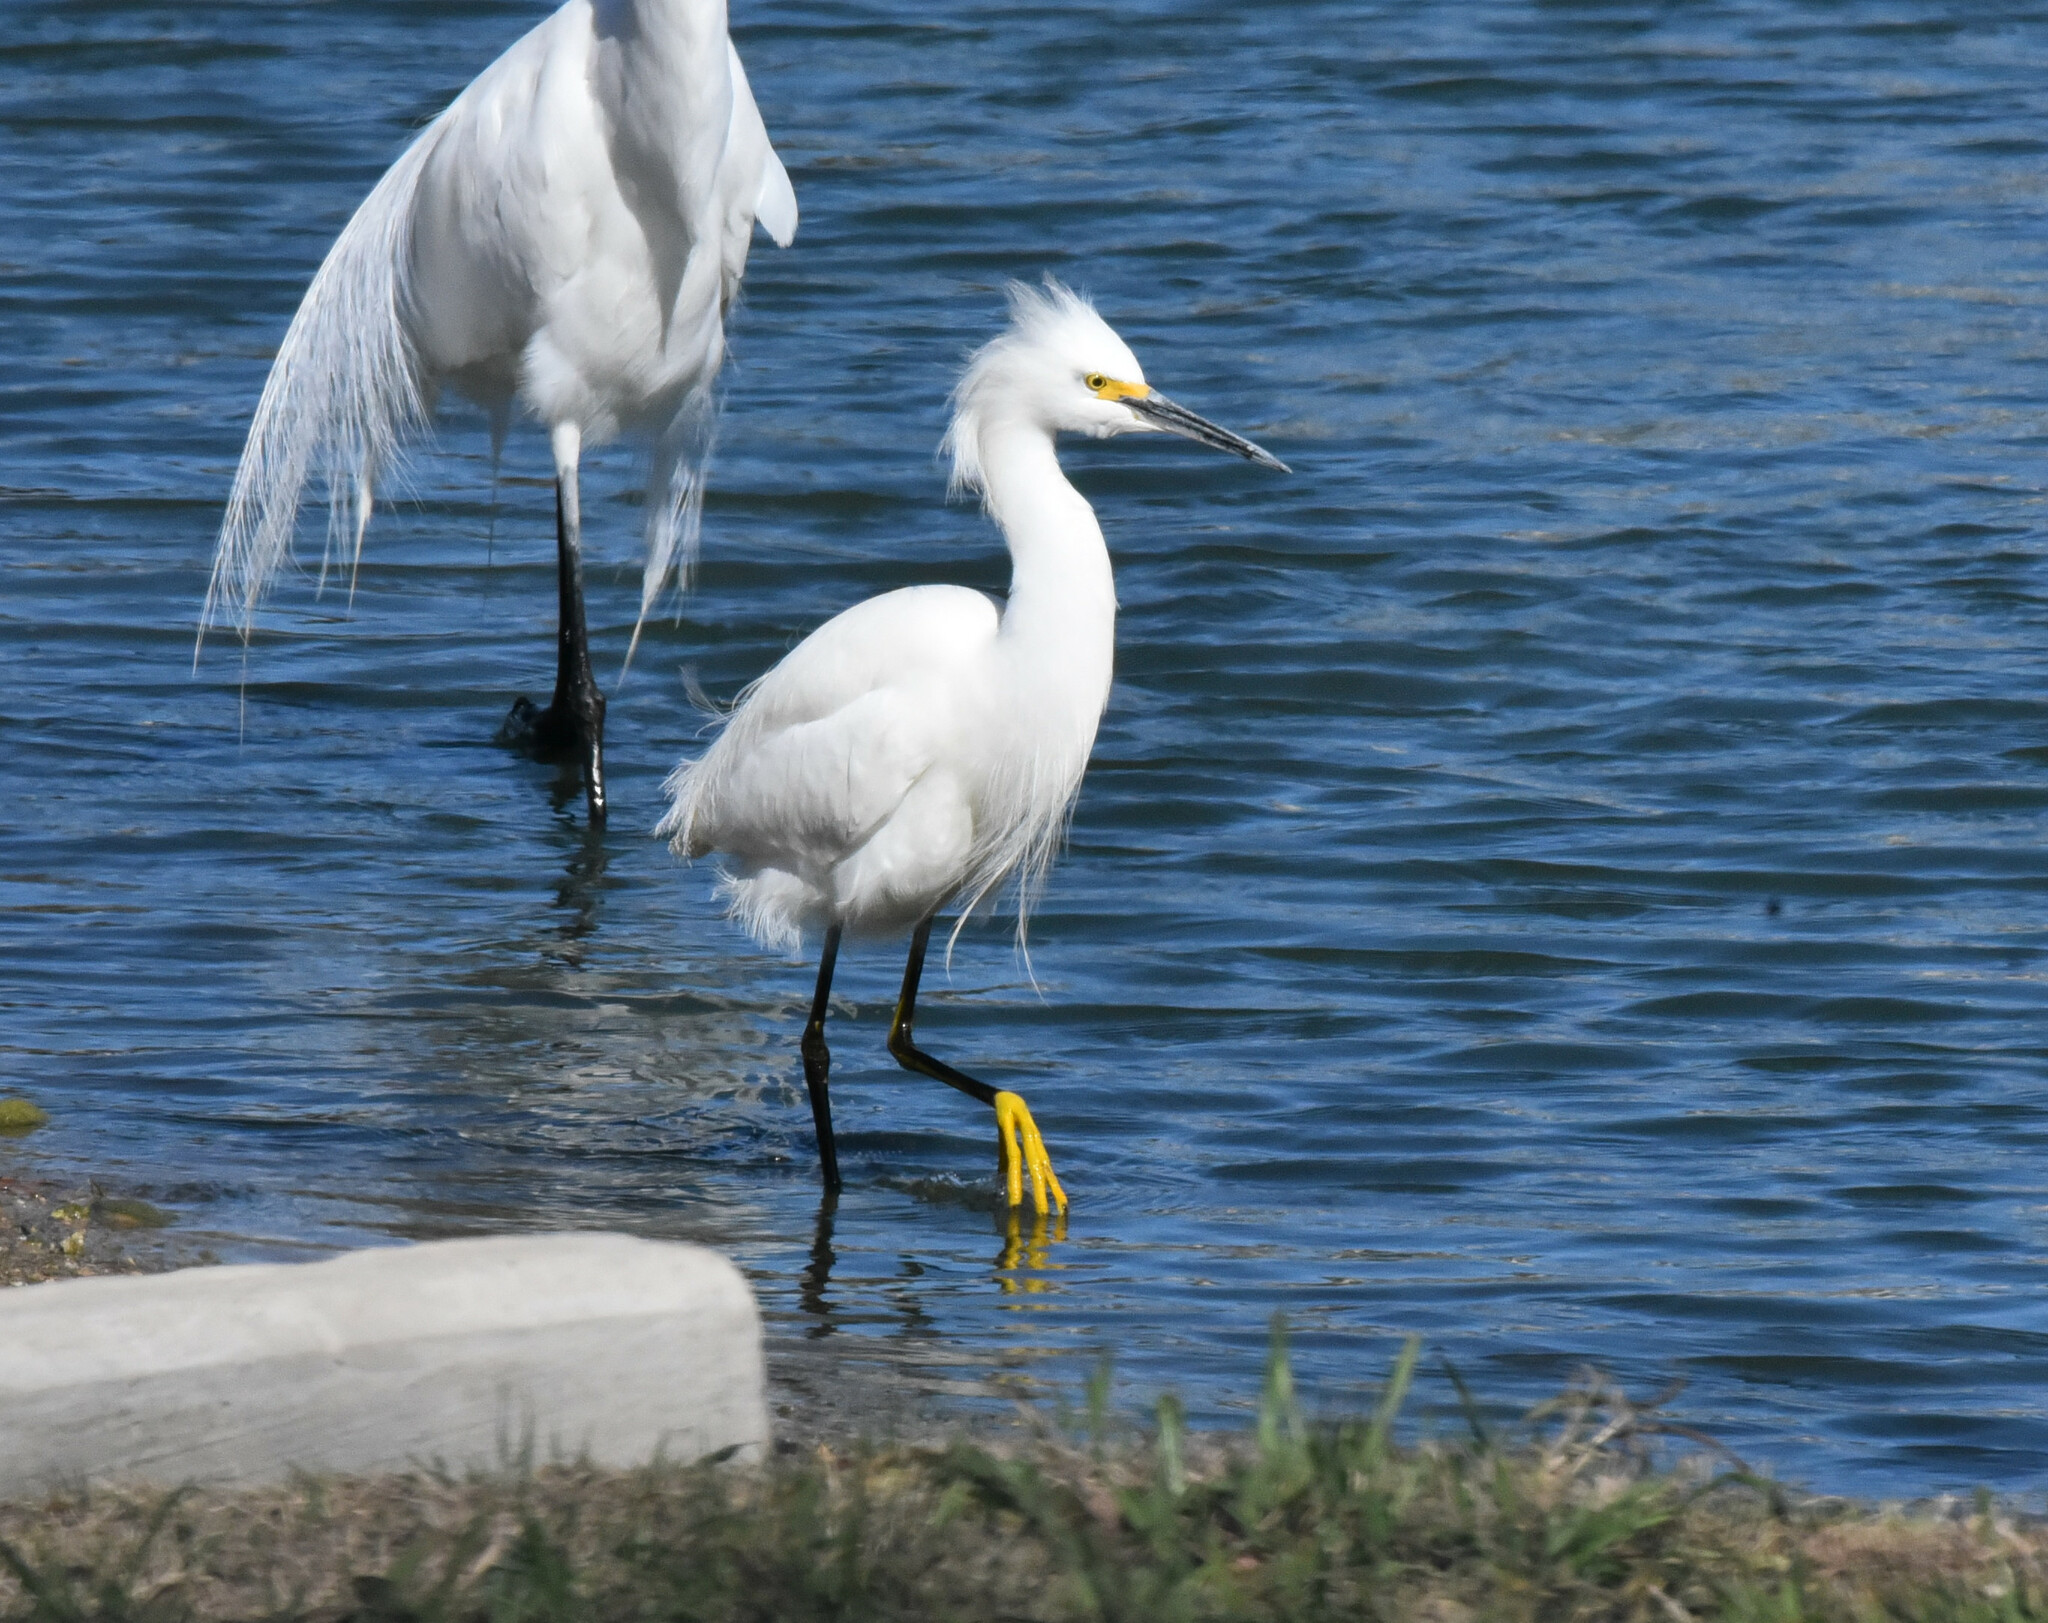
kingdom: Animalia
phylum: Chordata
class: Aves
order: Pelecaniformes
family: Ardeidae
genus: Egretta
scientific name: Egretta thula
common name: Snowy egret
